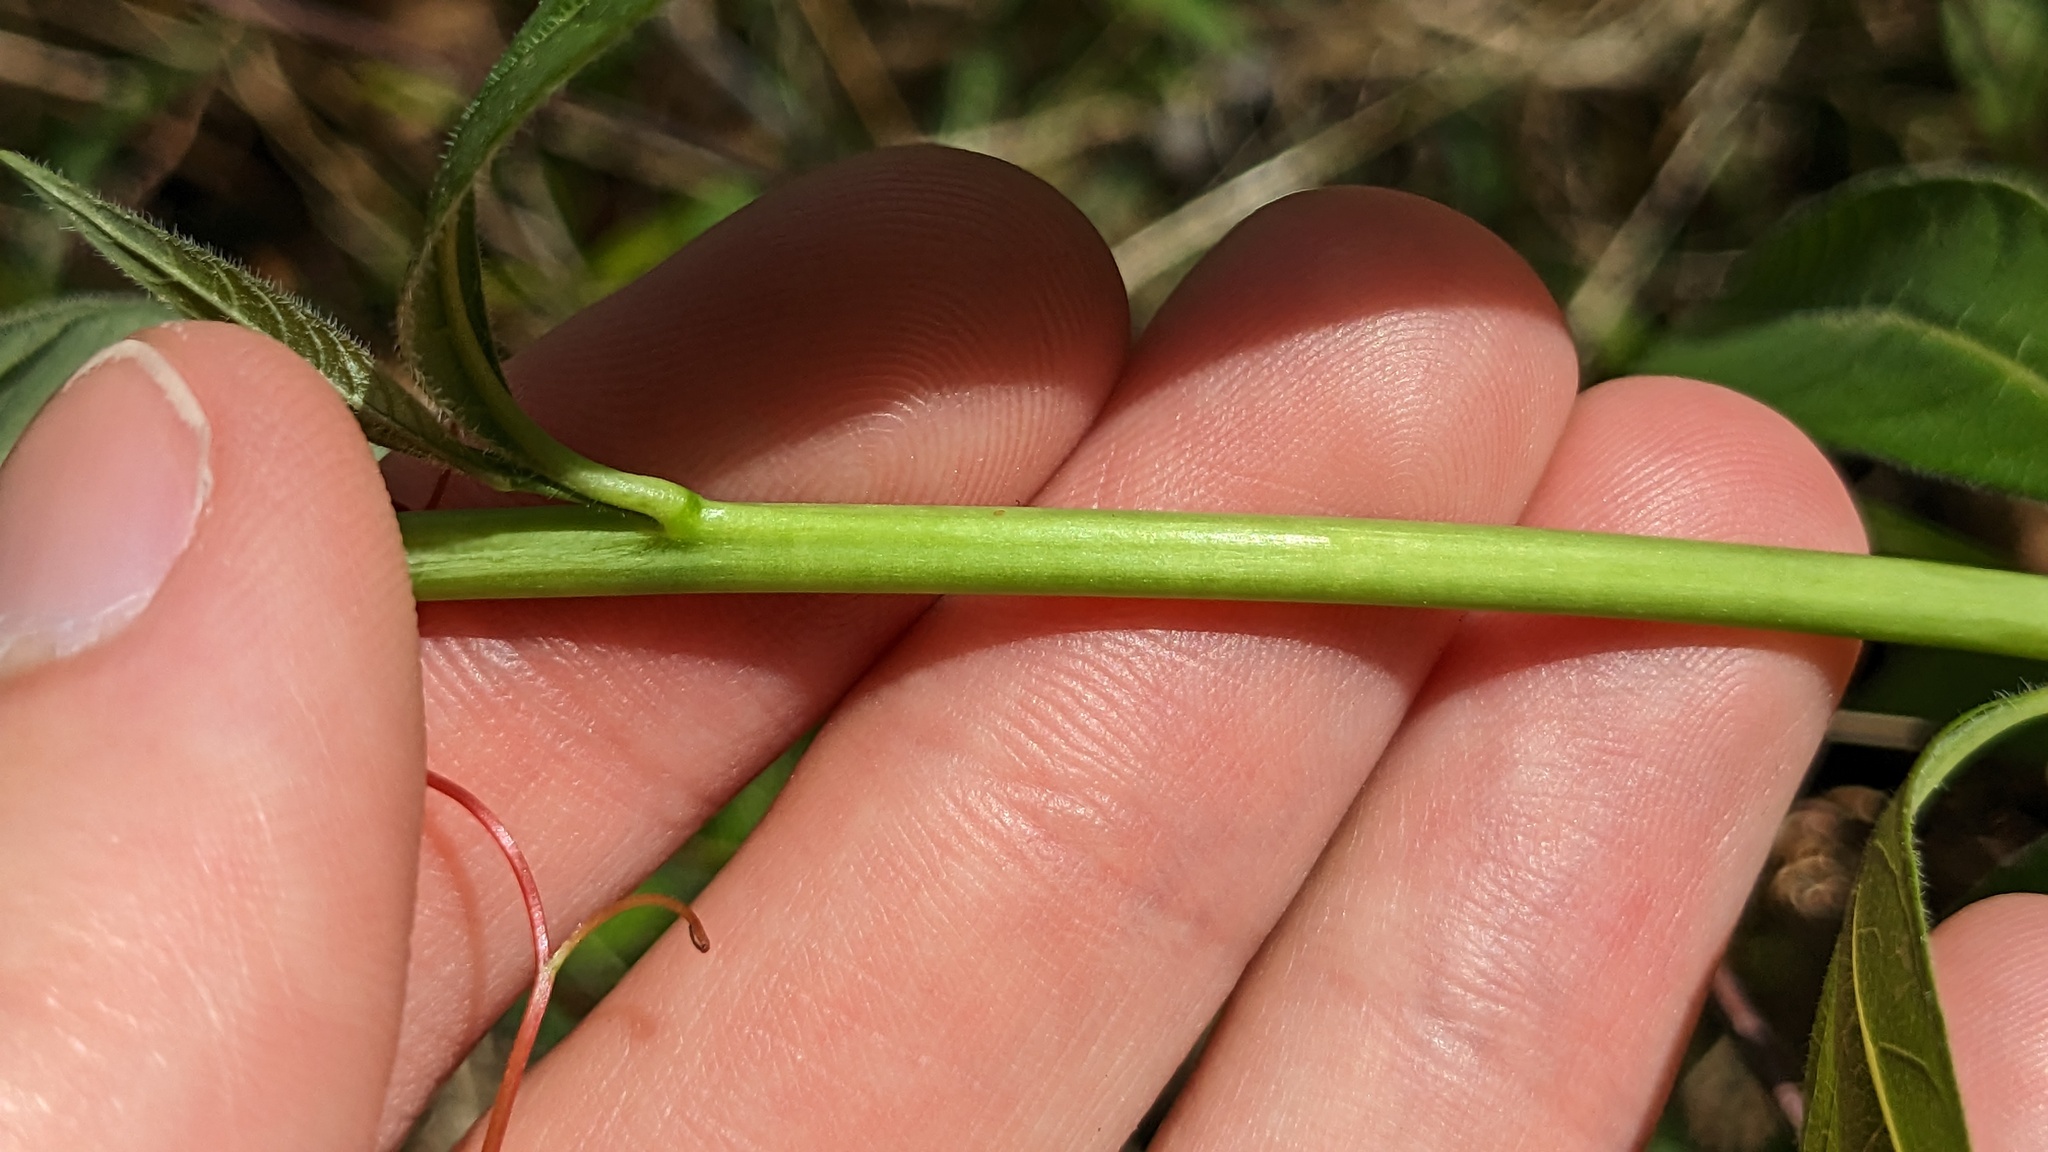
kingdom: Plantae
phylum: Tracheophyta
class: Magnoliopsida
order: Gentianales
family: Apocynaceae
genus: Amsonia
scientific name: Amsonia rigida
